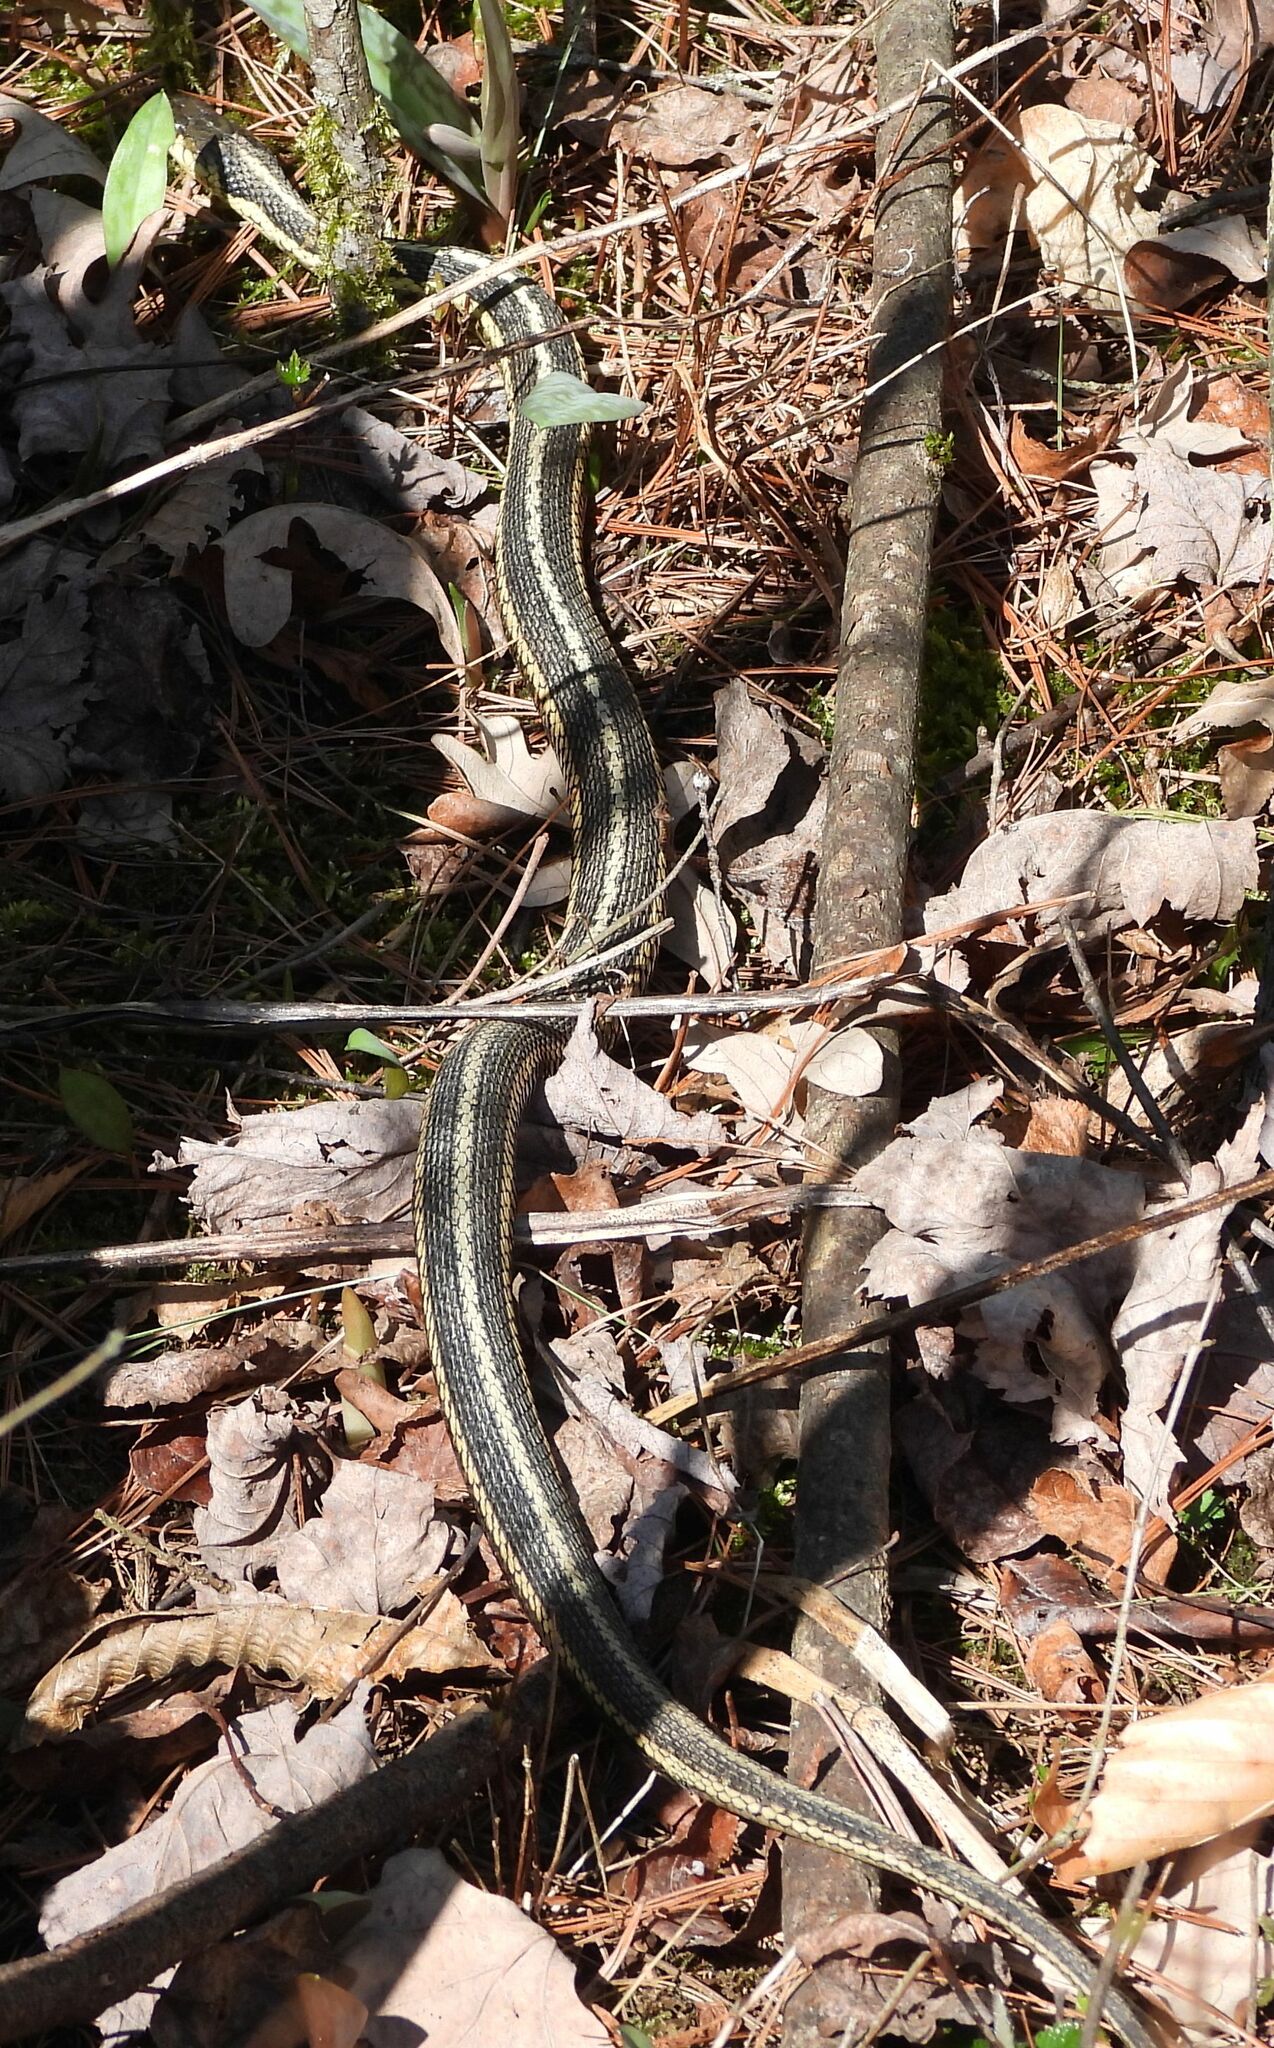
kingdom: Animalia
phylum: Chordata
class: Squamata
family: Colubridae
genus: Thamnophis
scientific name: Thamnophis sirtalis
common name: Common garter snake
